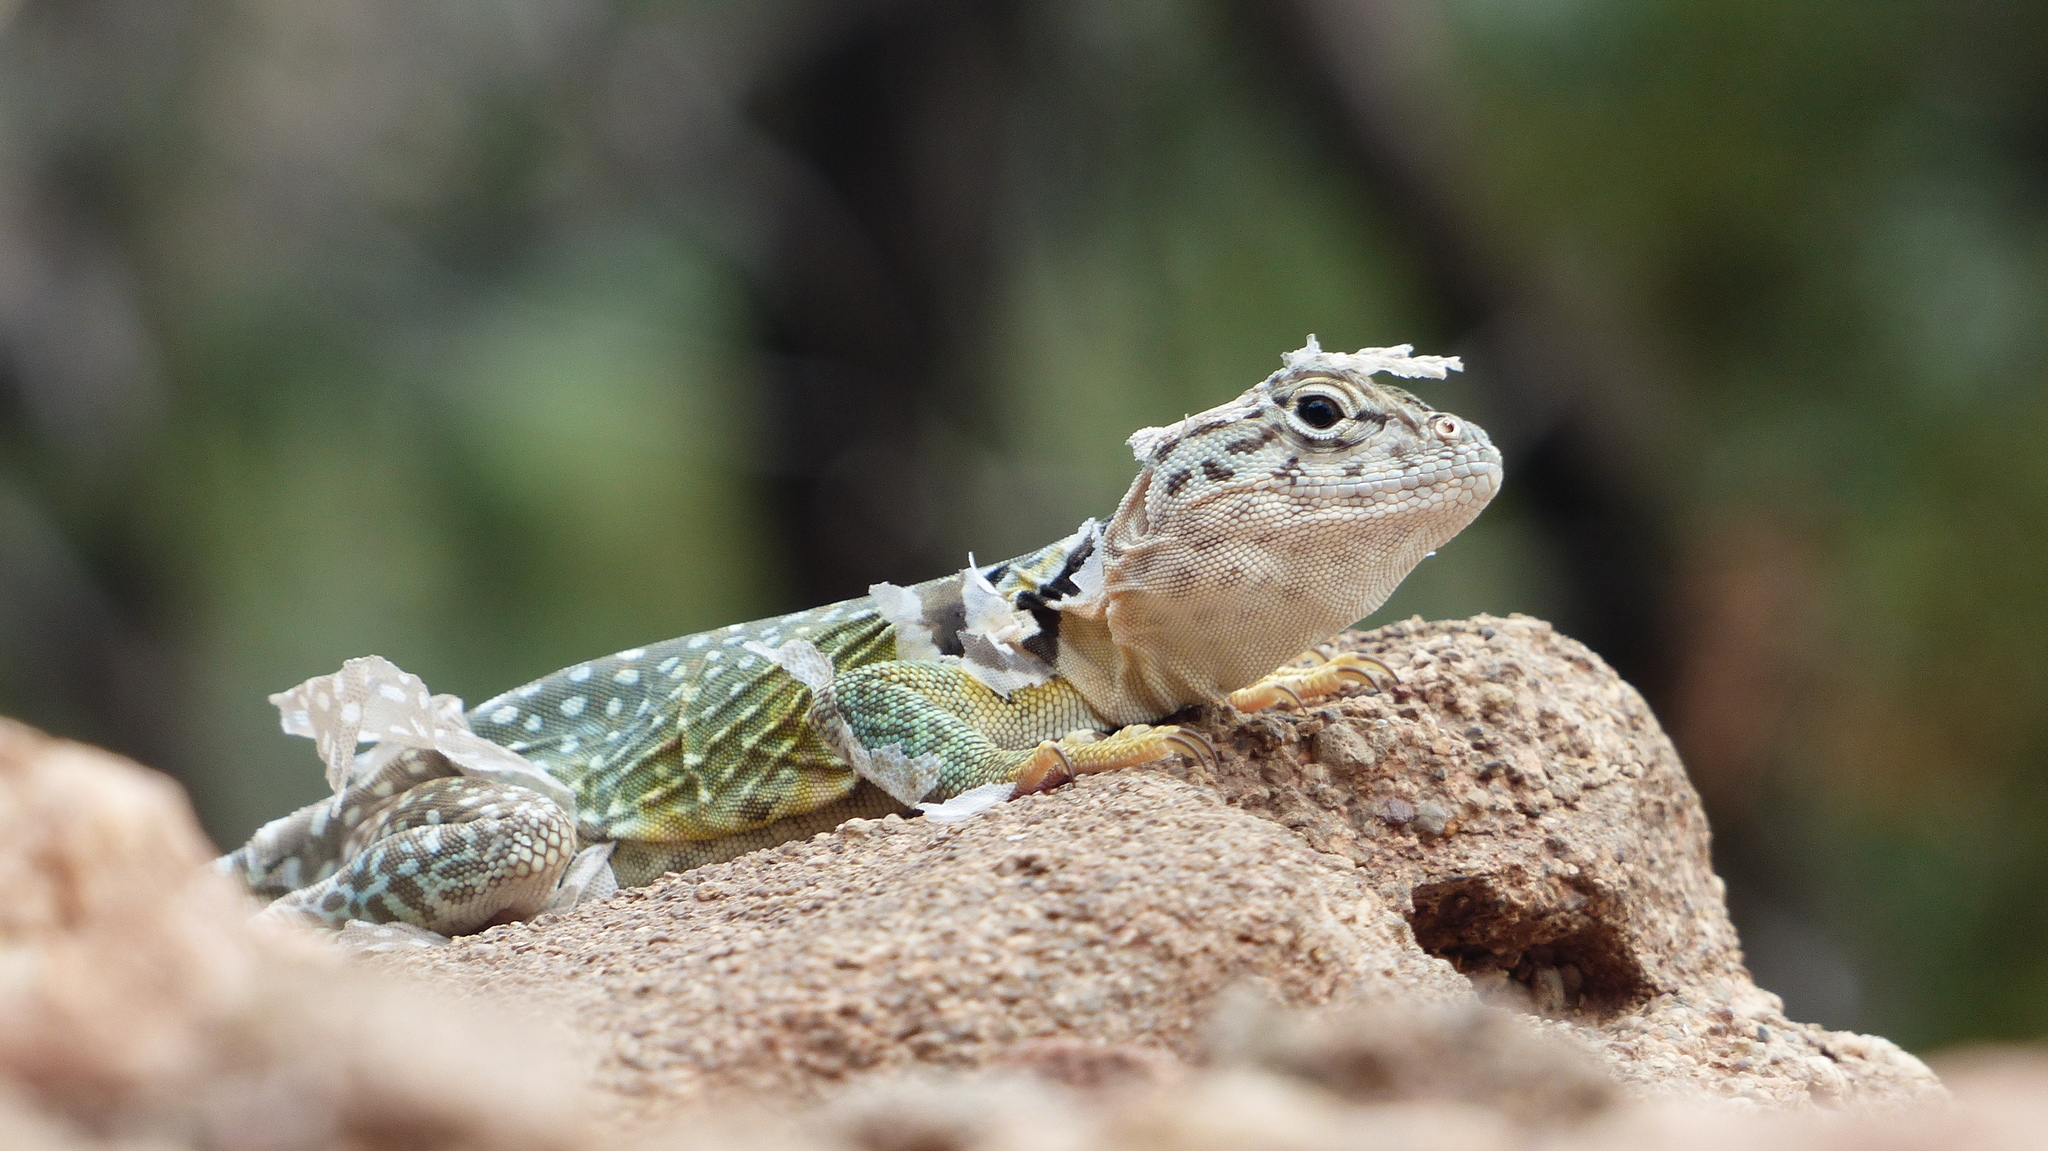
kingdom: Animalia
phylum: Chordata
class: Squamata
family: Crotaphytidae
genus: Crotaphytus
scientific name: Crotaphytus collaris
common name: Collared lizard
